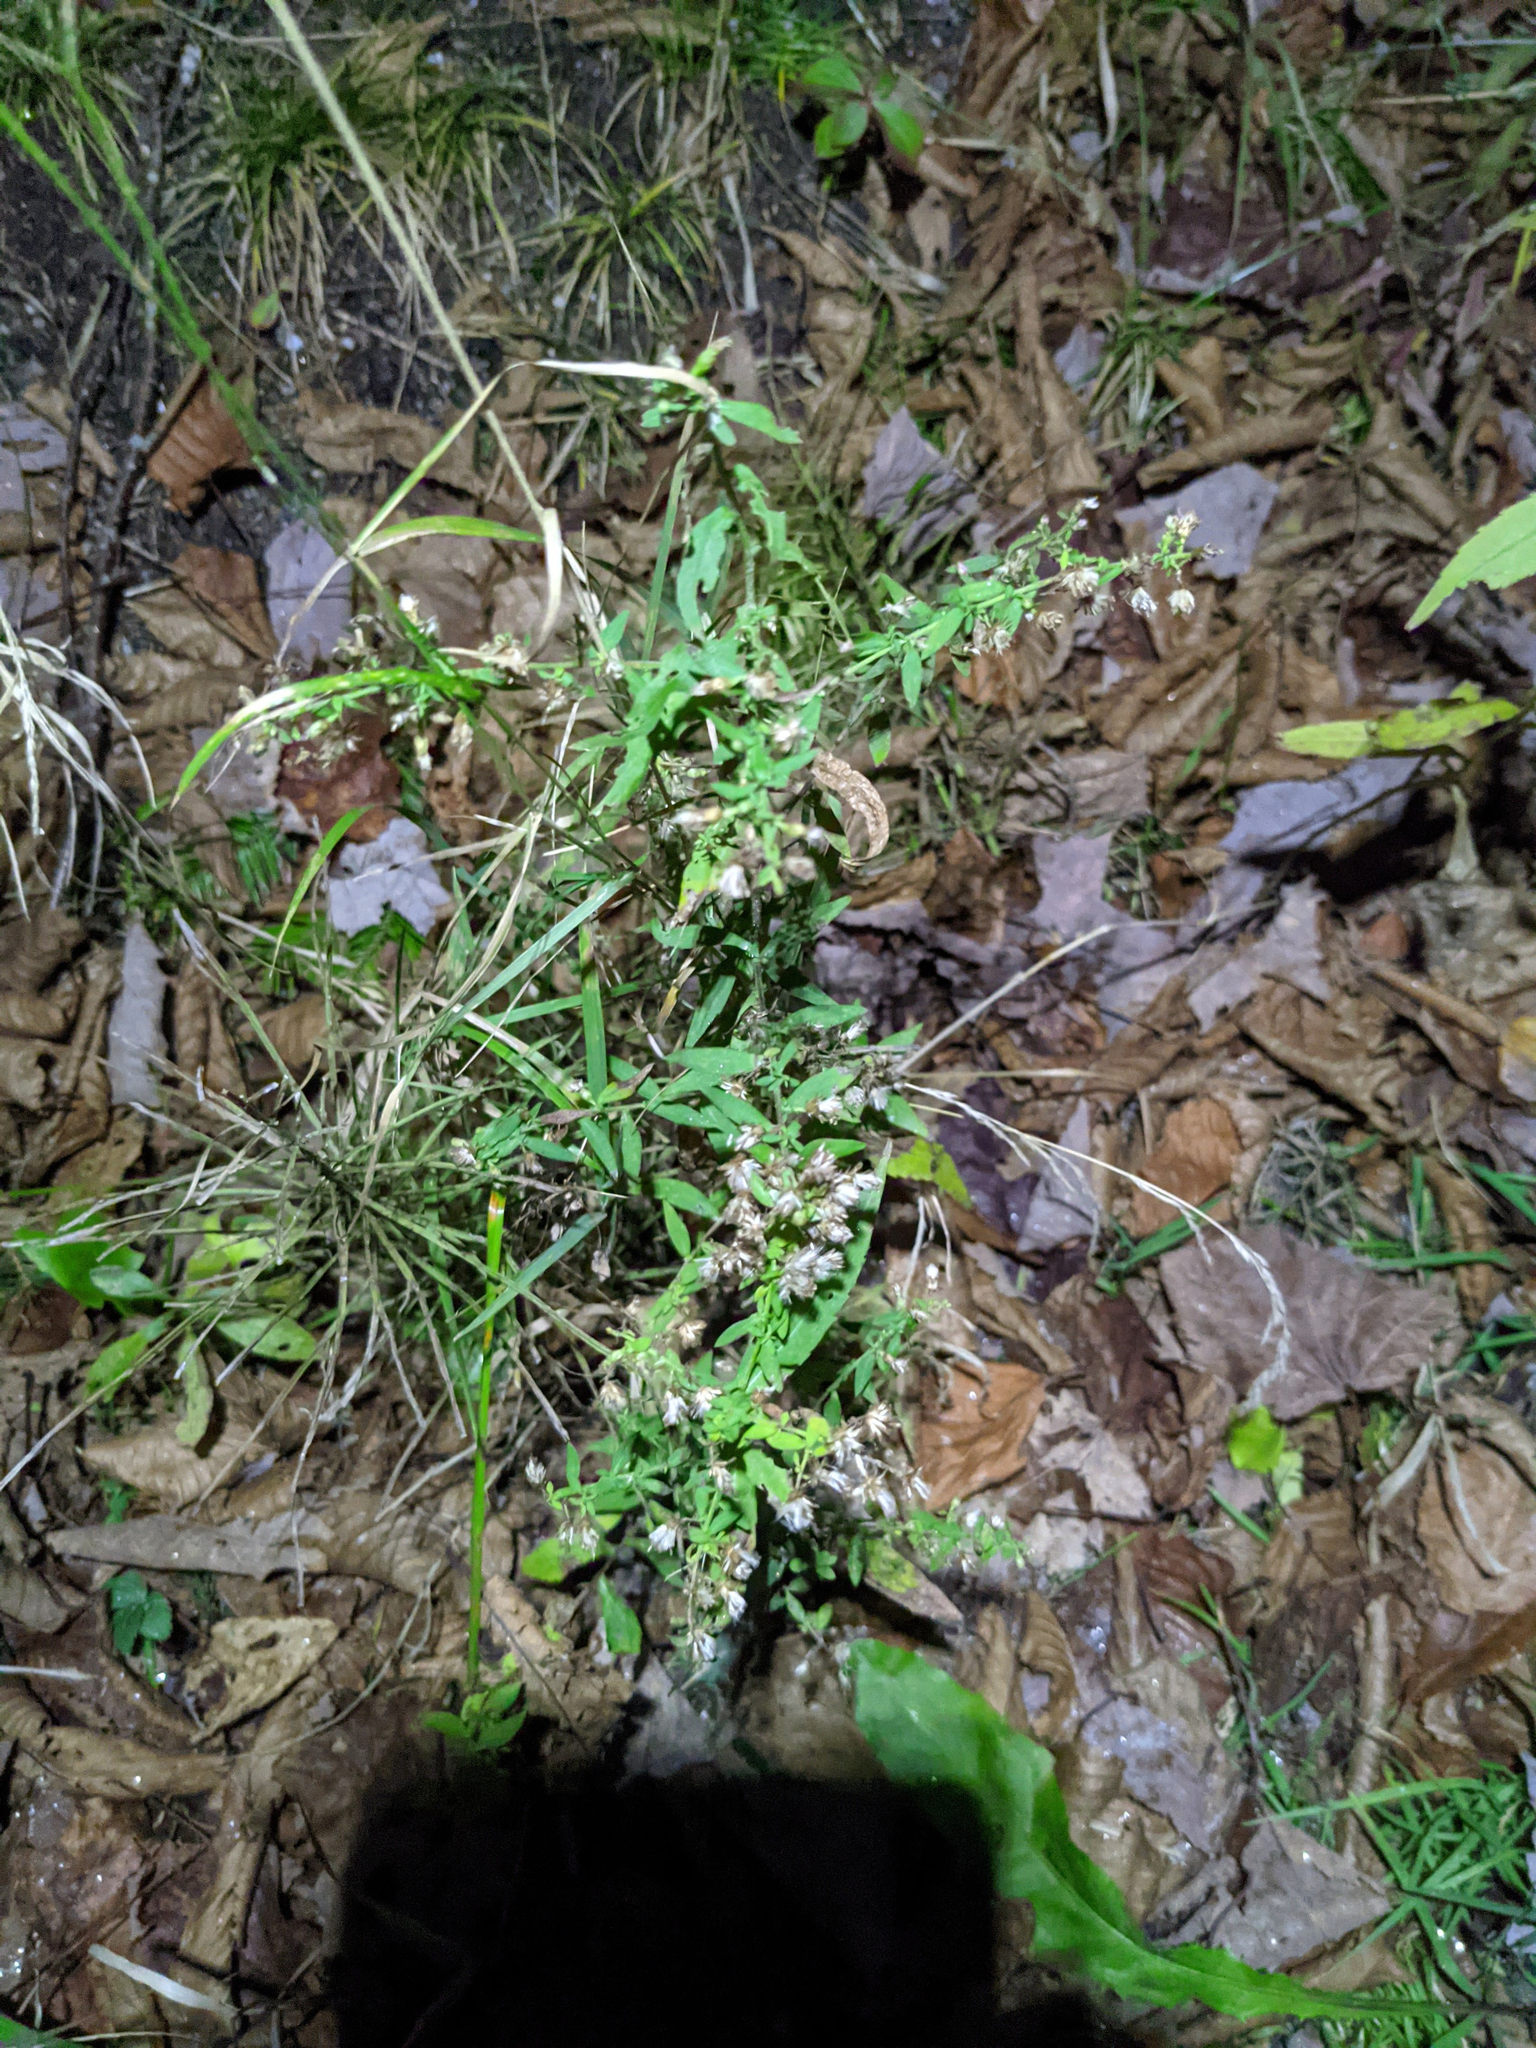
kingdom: Plantae
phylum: Tracheophyta
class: Magnoliopsida
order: Asterales
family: Asteraceae
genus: Symphyotrichum
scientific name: Symphyotrichum lateriflorum
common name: Calico aster
